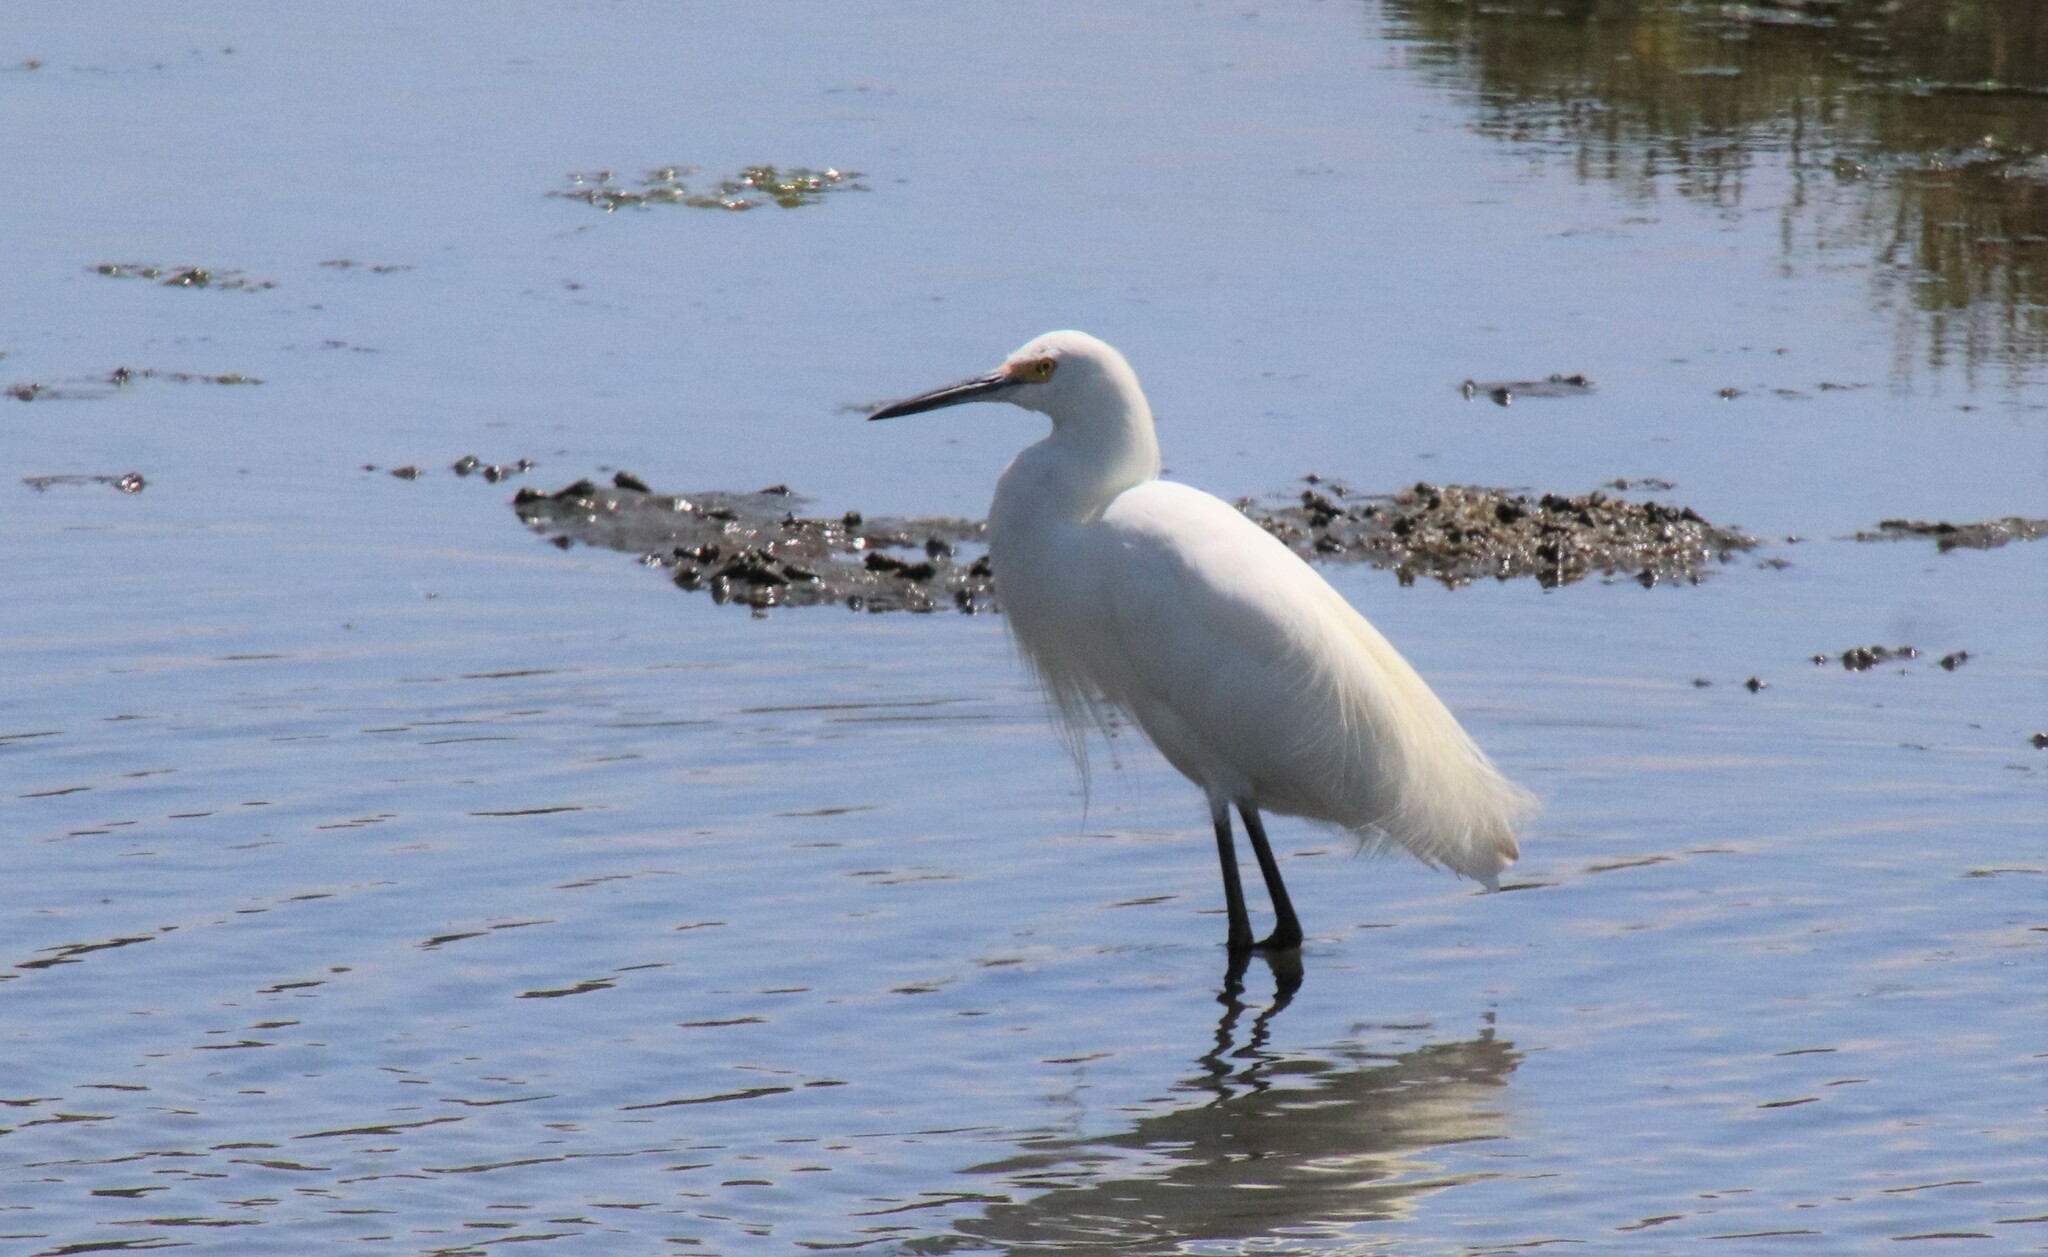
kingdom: Animalia
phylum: Chordata
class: Aves
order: Pelecaniformes
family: Ardeidae
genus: Egretta
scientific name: Egretta thula
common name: Snowy egret
